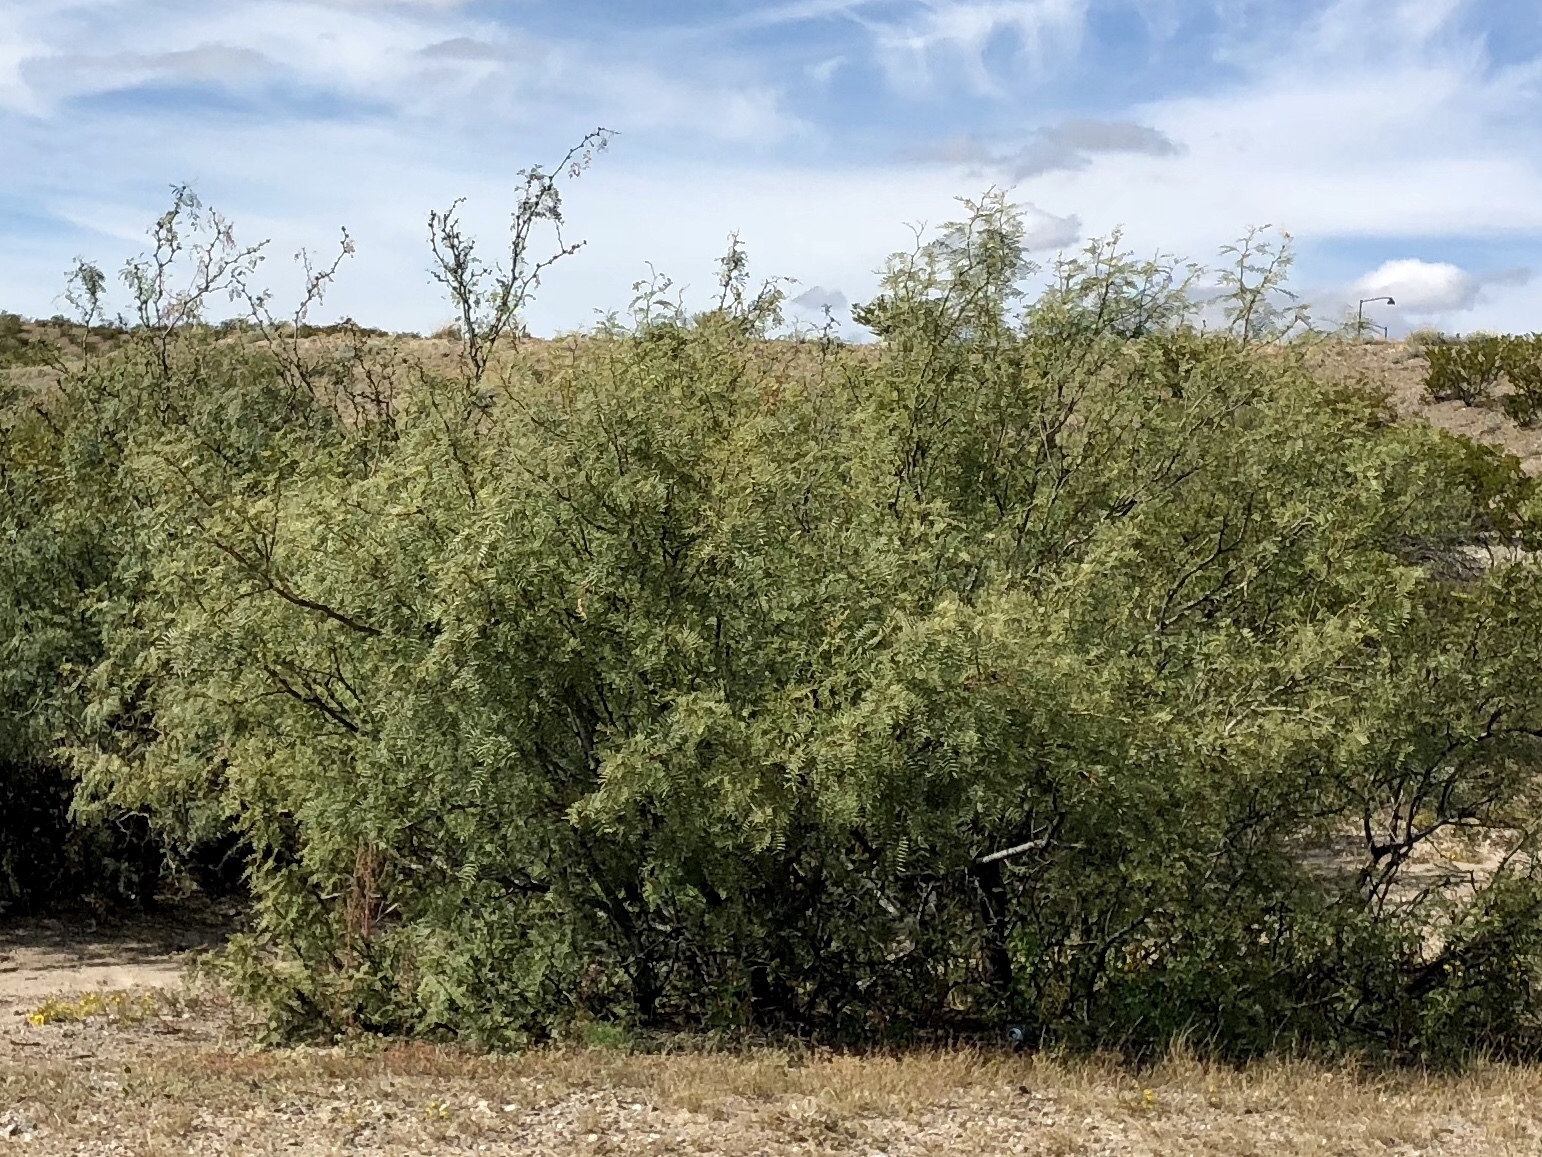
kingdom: Plantae
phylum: Tracheophyta
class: Magnoliopsida
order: Fabales
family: Fabaceae
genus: Prosopis
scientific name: Prosopis glandulosa
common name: Honey mesquite
